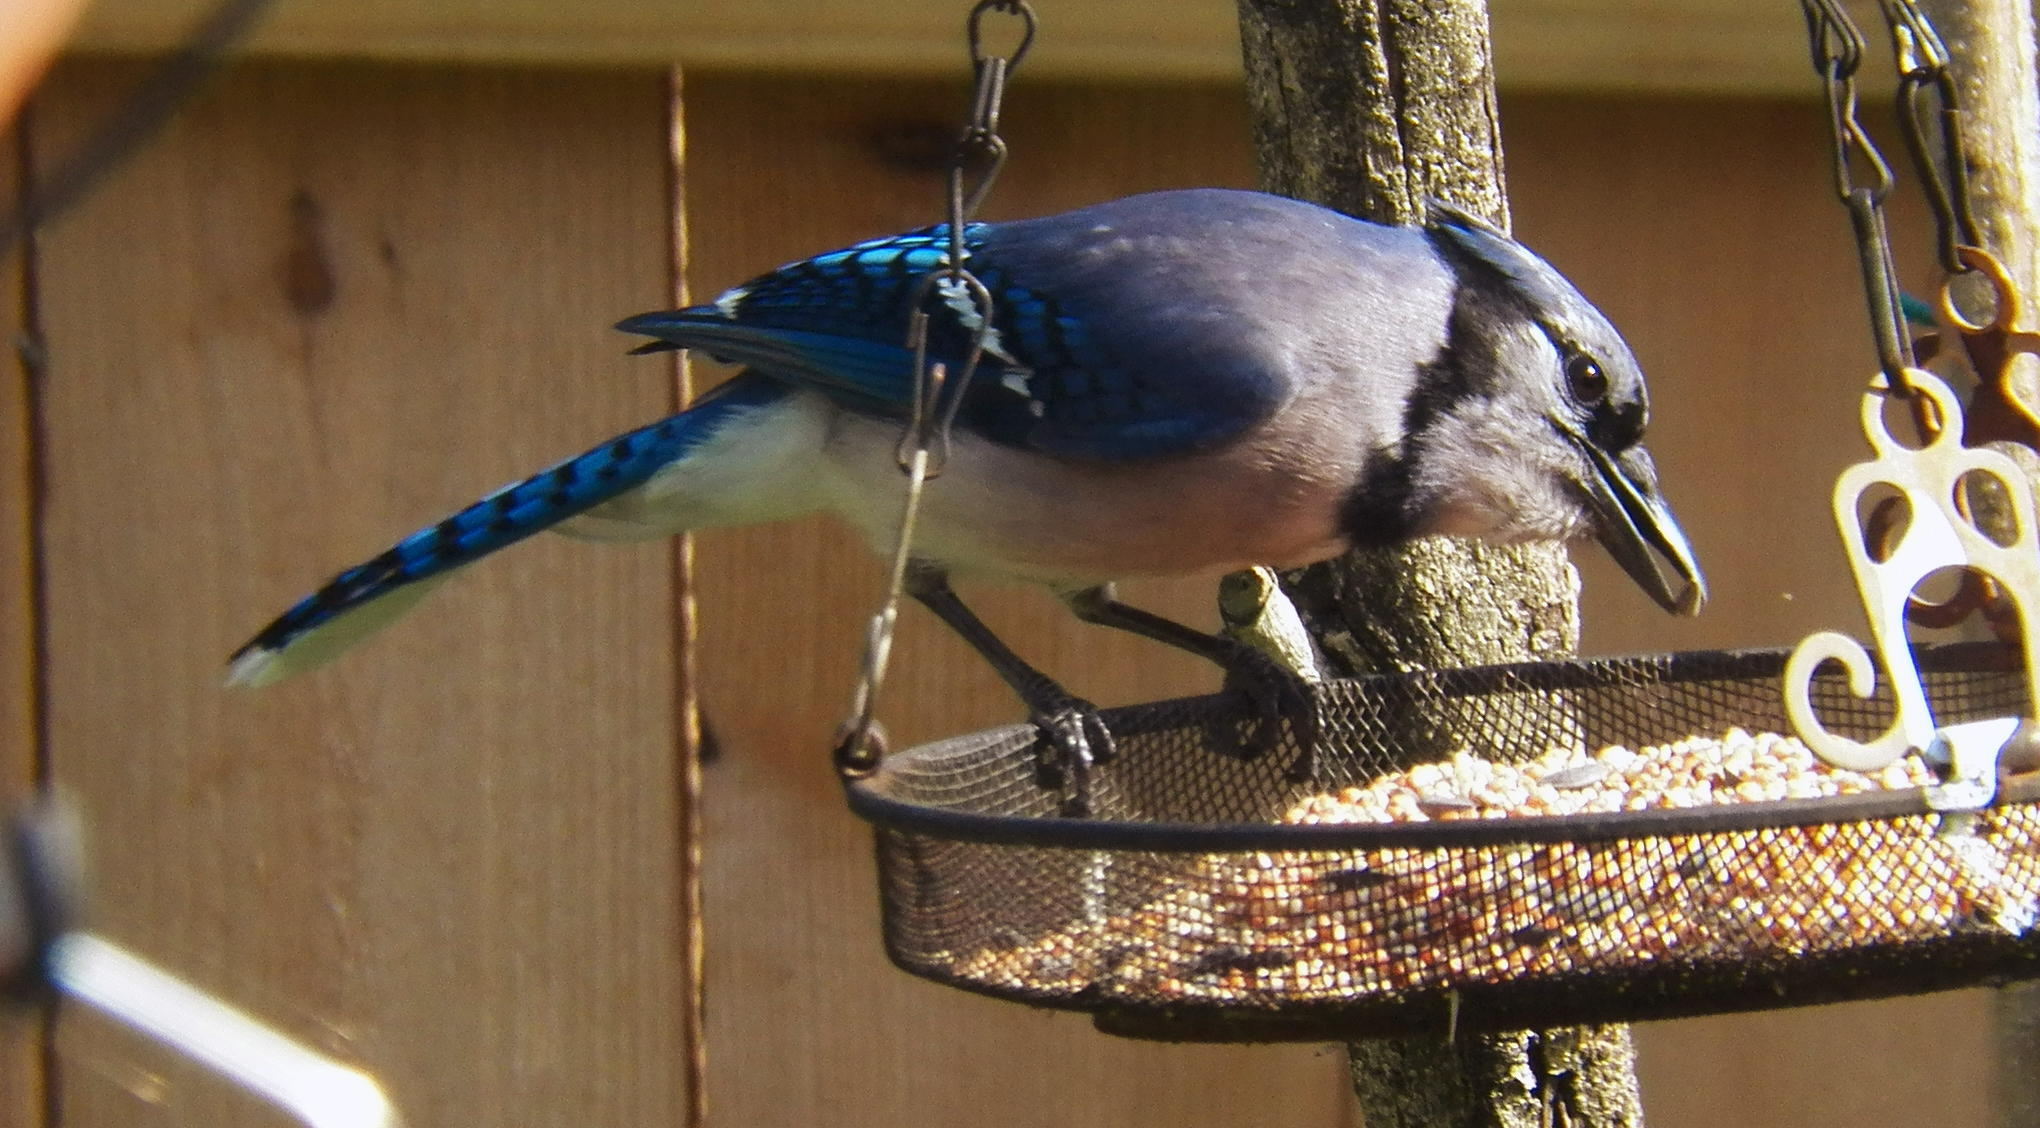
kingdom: Animalia
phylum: Chordata
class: Aves
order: Passeriformes
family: Corvidae
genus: Cyanocitta
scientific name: Cyanocitta cristata
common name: Blue jay
